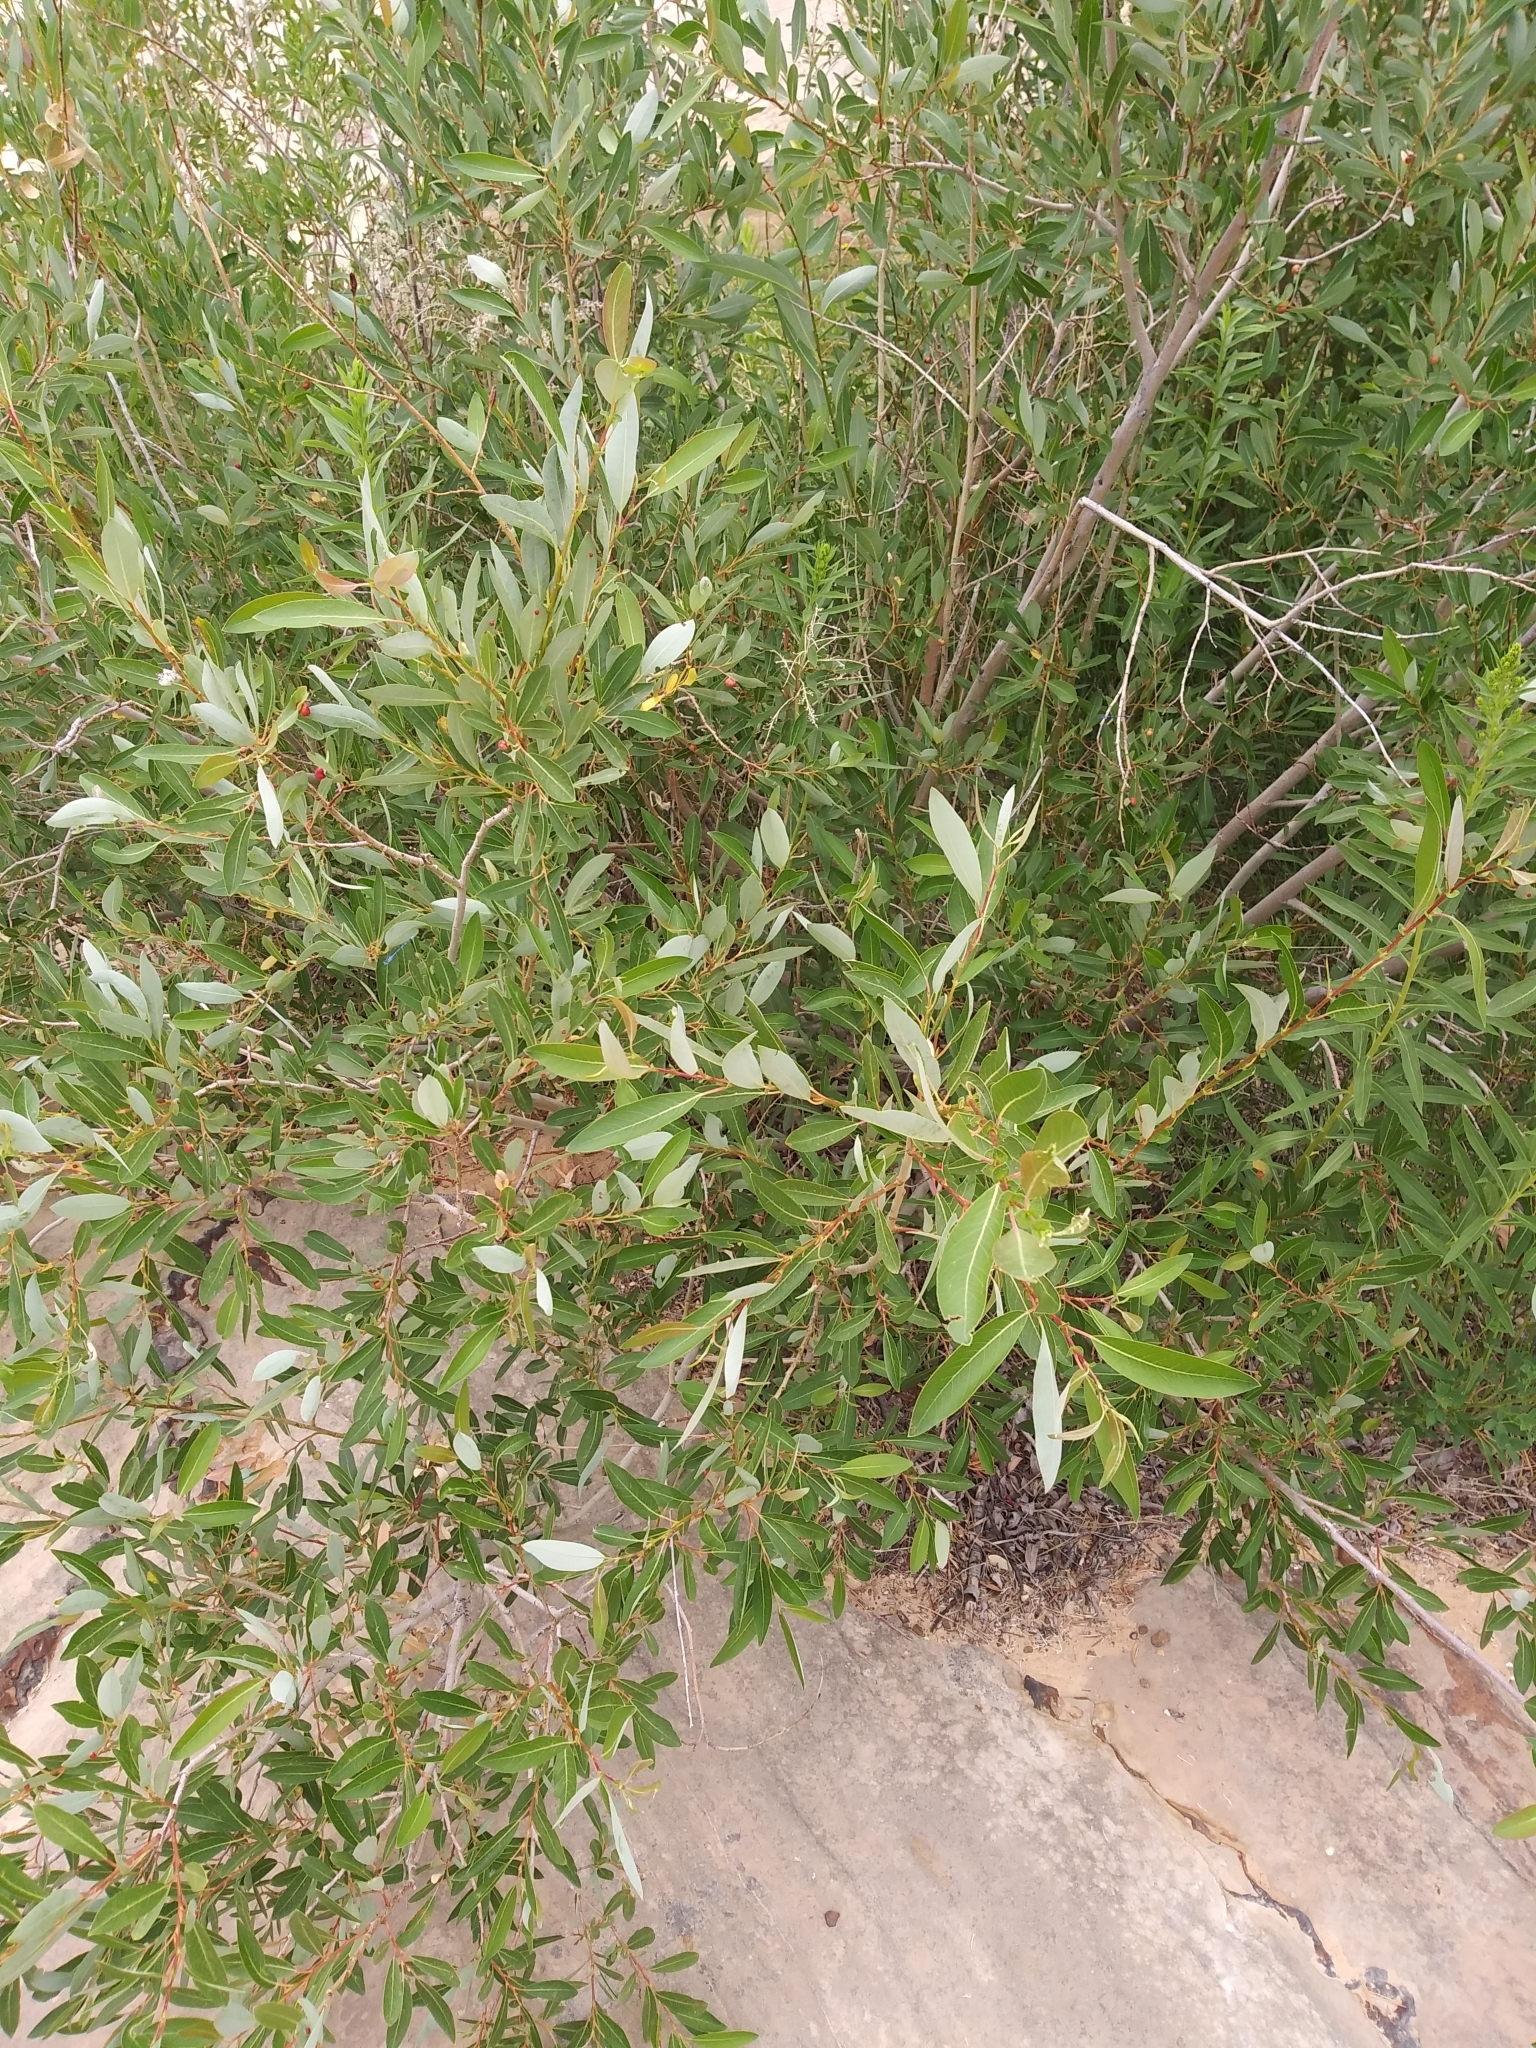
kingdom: Plantae
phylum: Tracheophyta
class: Magnoliopsida
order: Malpighiales
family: Salicaceae
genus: Salix
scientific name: Salix lutea
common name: Yellow willow
